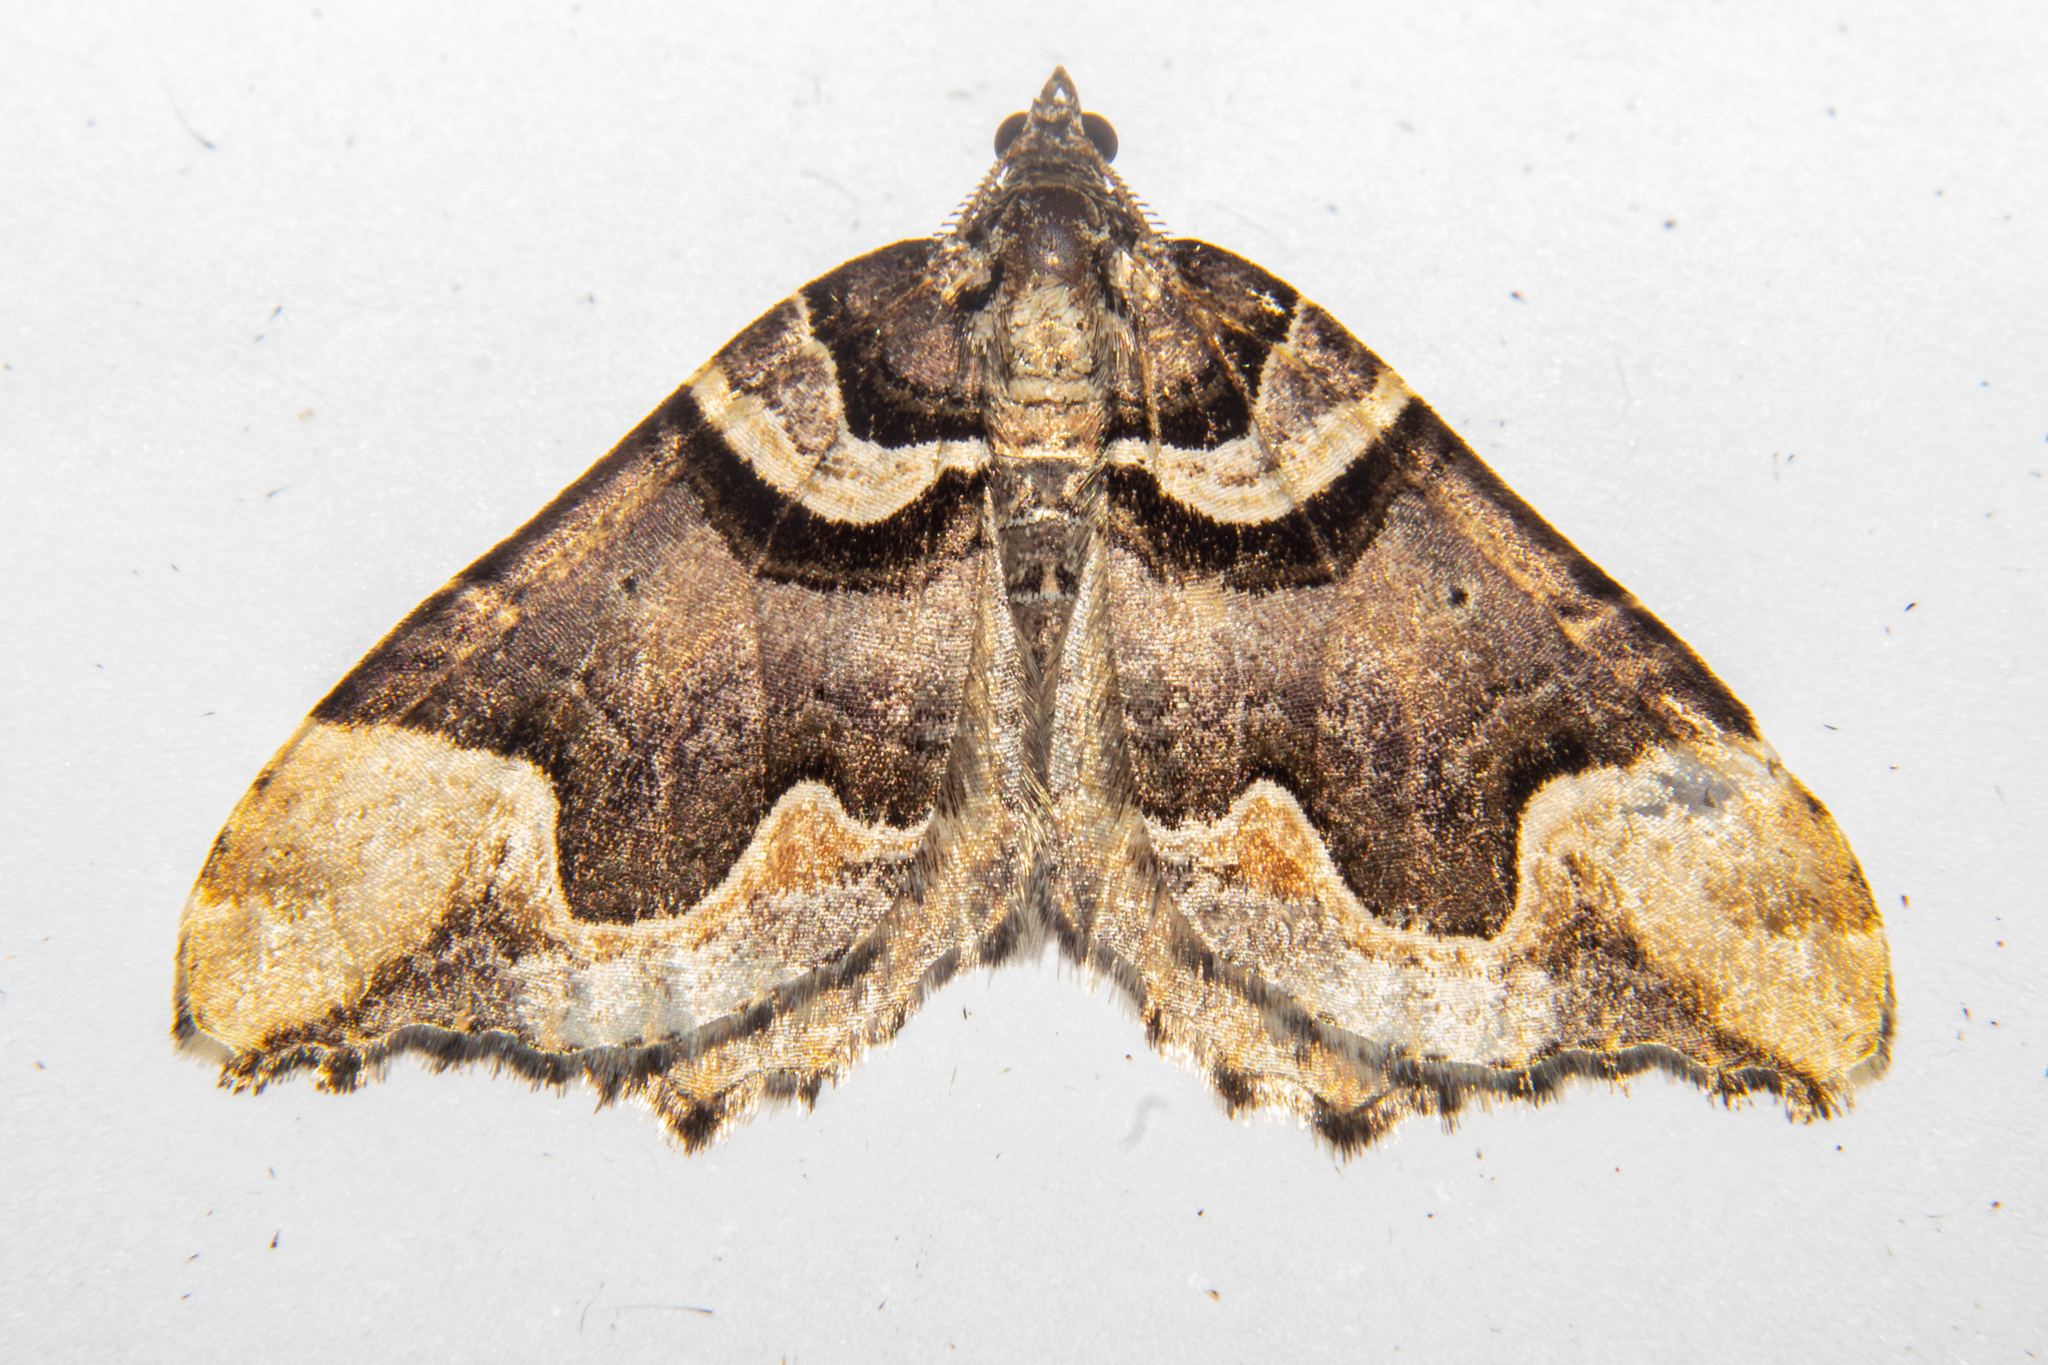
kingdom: Animalia
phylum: Arthropoda
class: Insecta
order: Lepidoptera
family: Geometridae
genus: Asaphodes
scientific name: Asaphodes chlamydota
